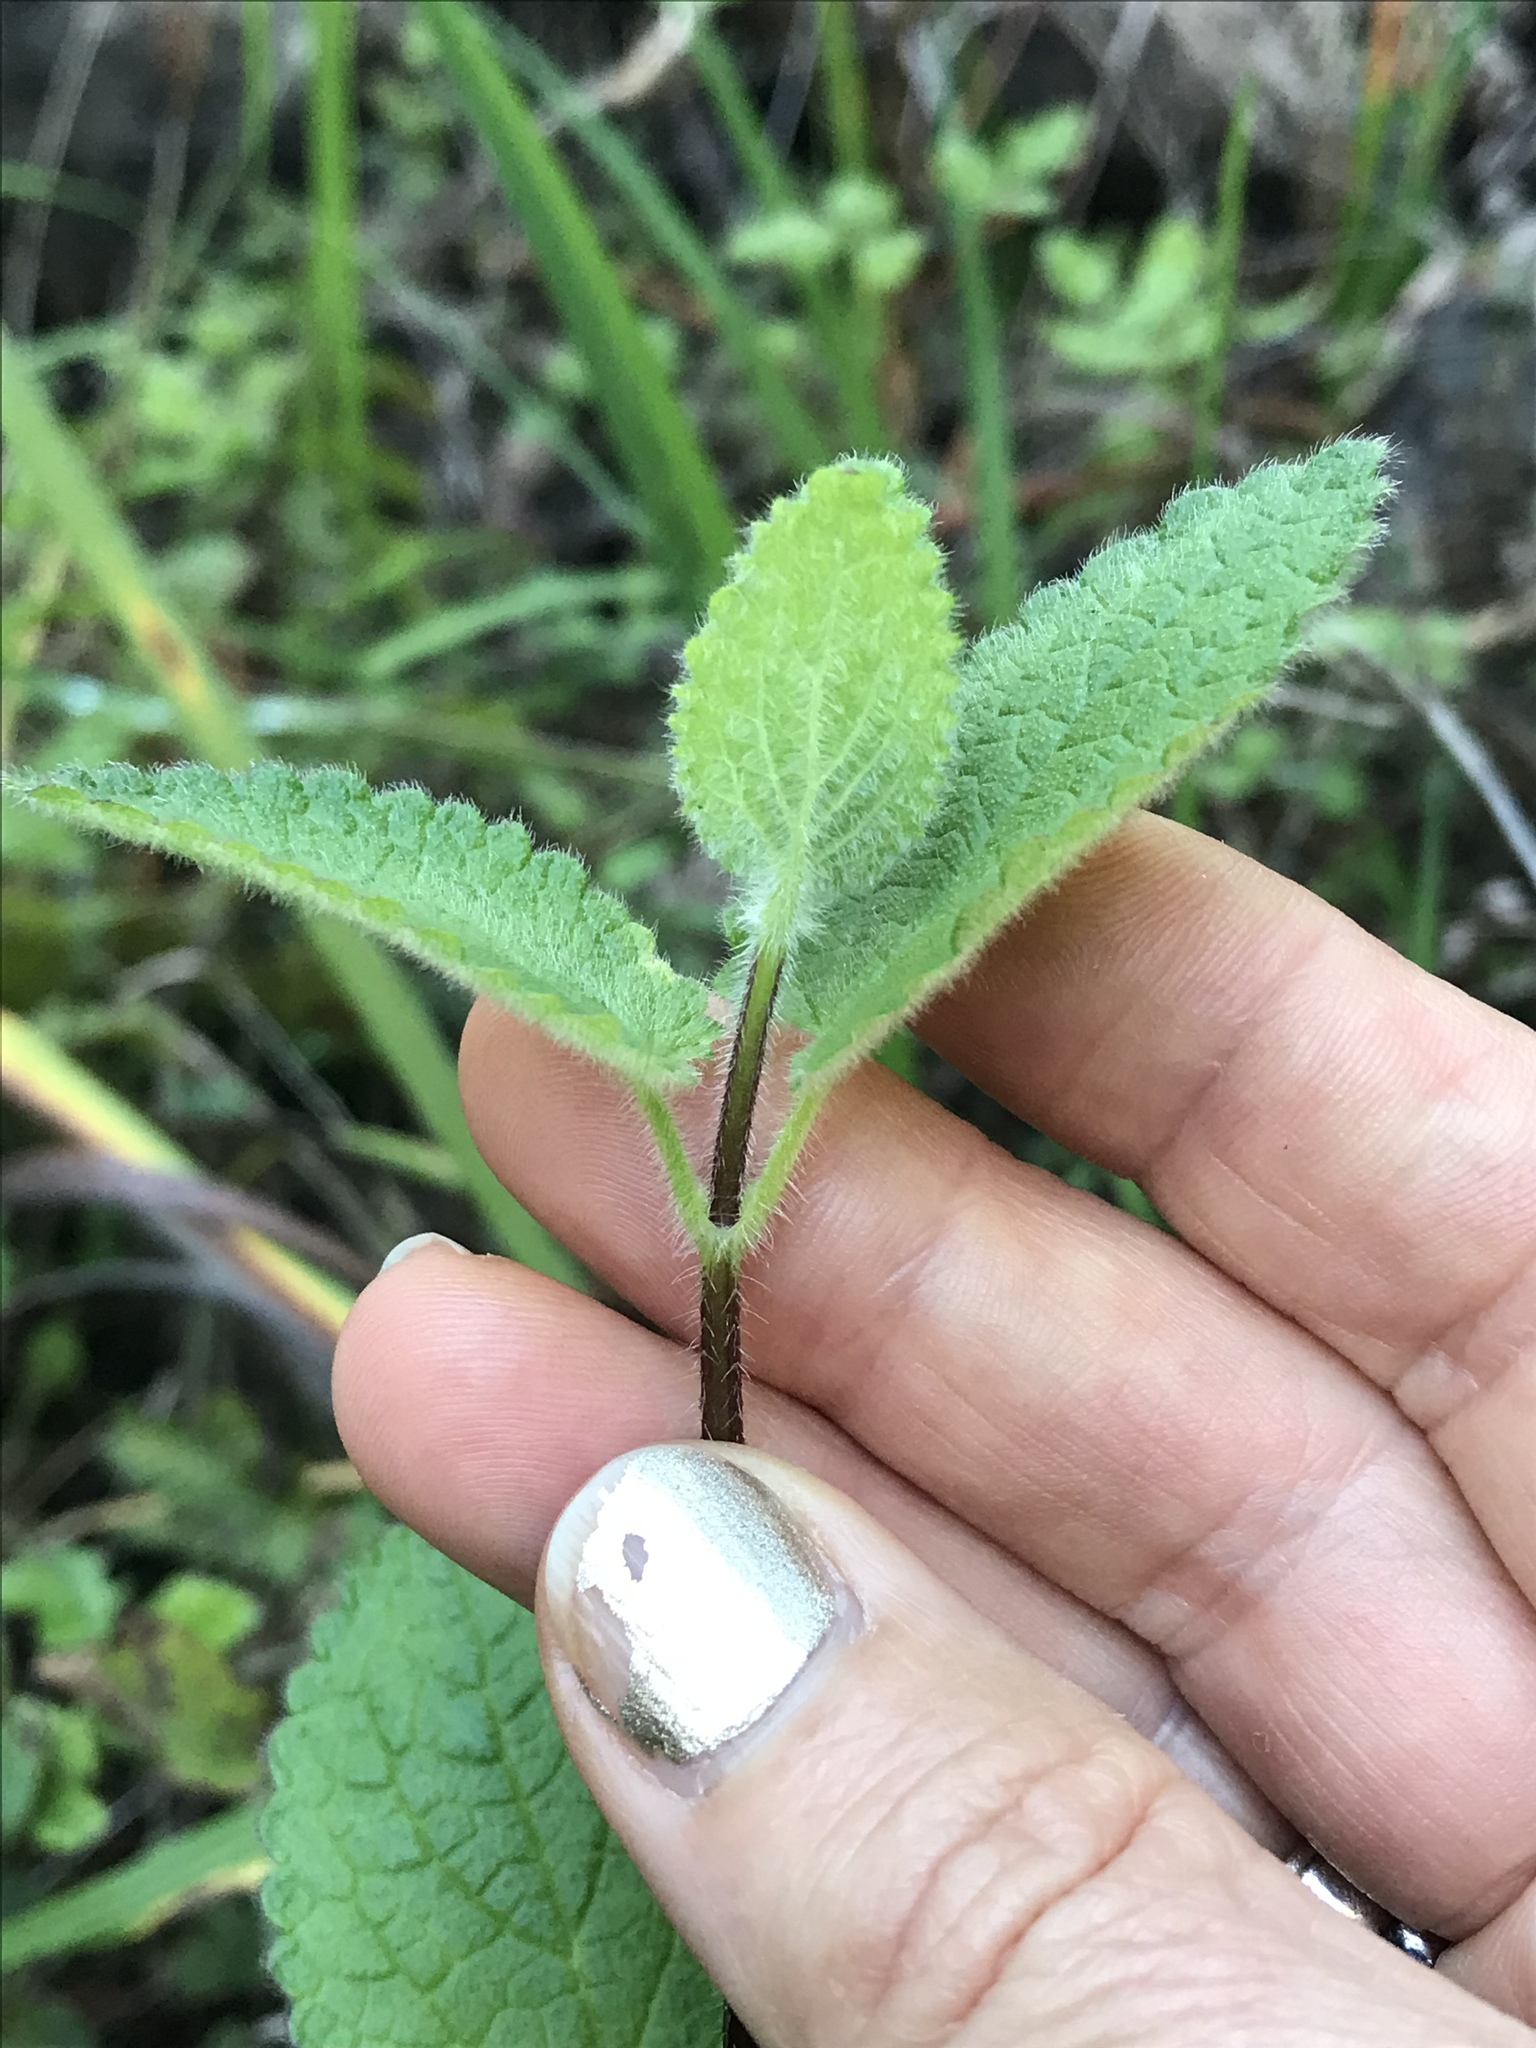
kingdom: Plantae
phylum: Tracheophyta
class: Magnoliopsida
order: Lamiales
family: Lamiaceae
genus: Stachys
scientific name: Stachys
